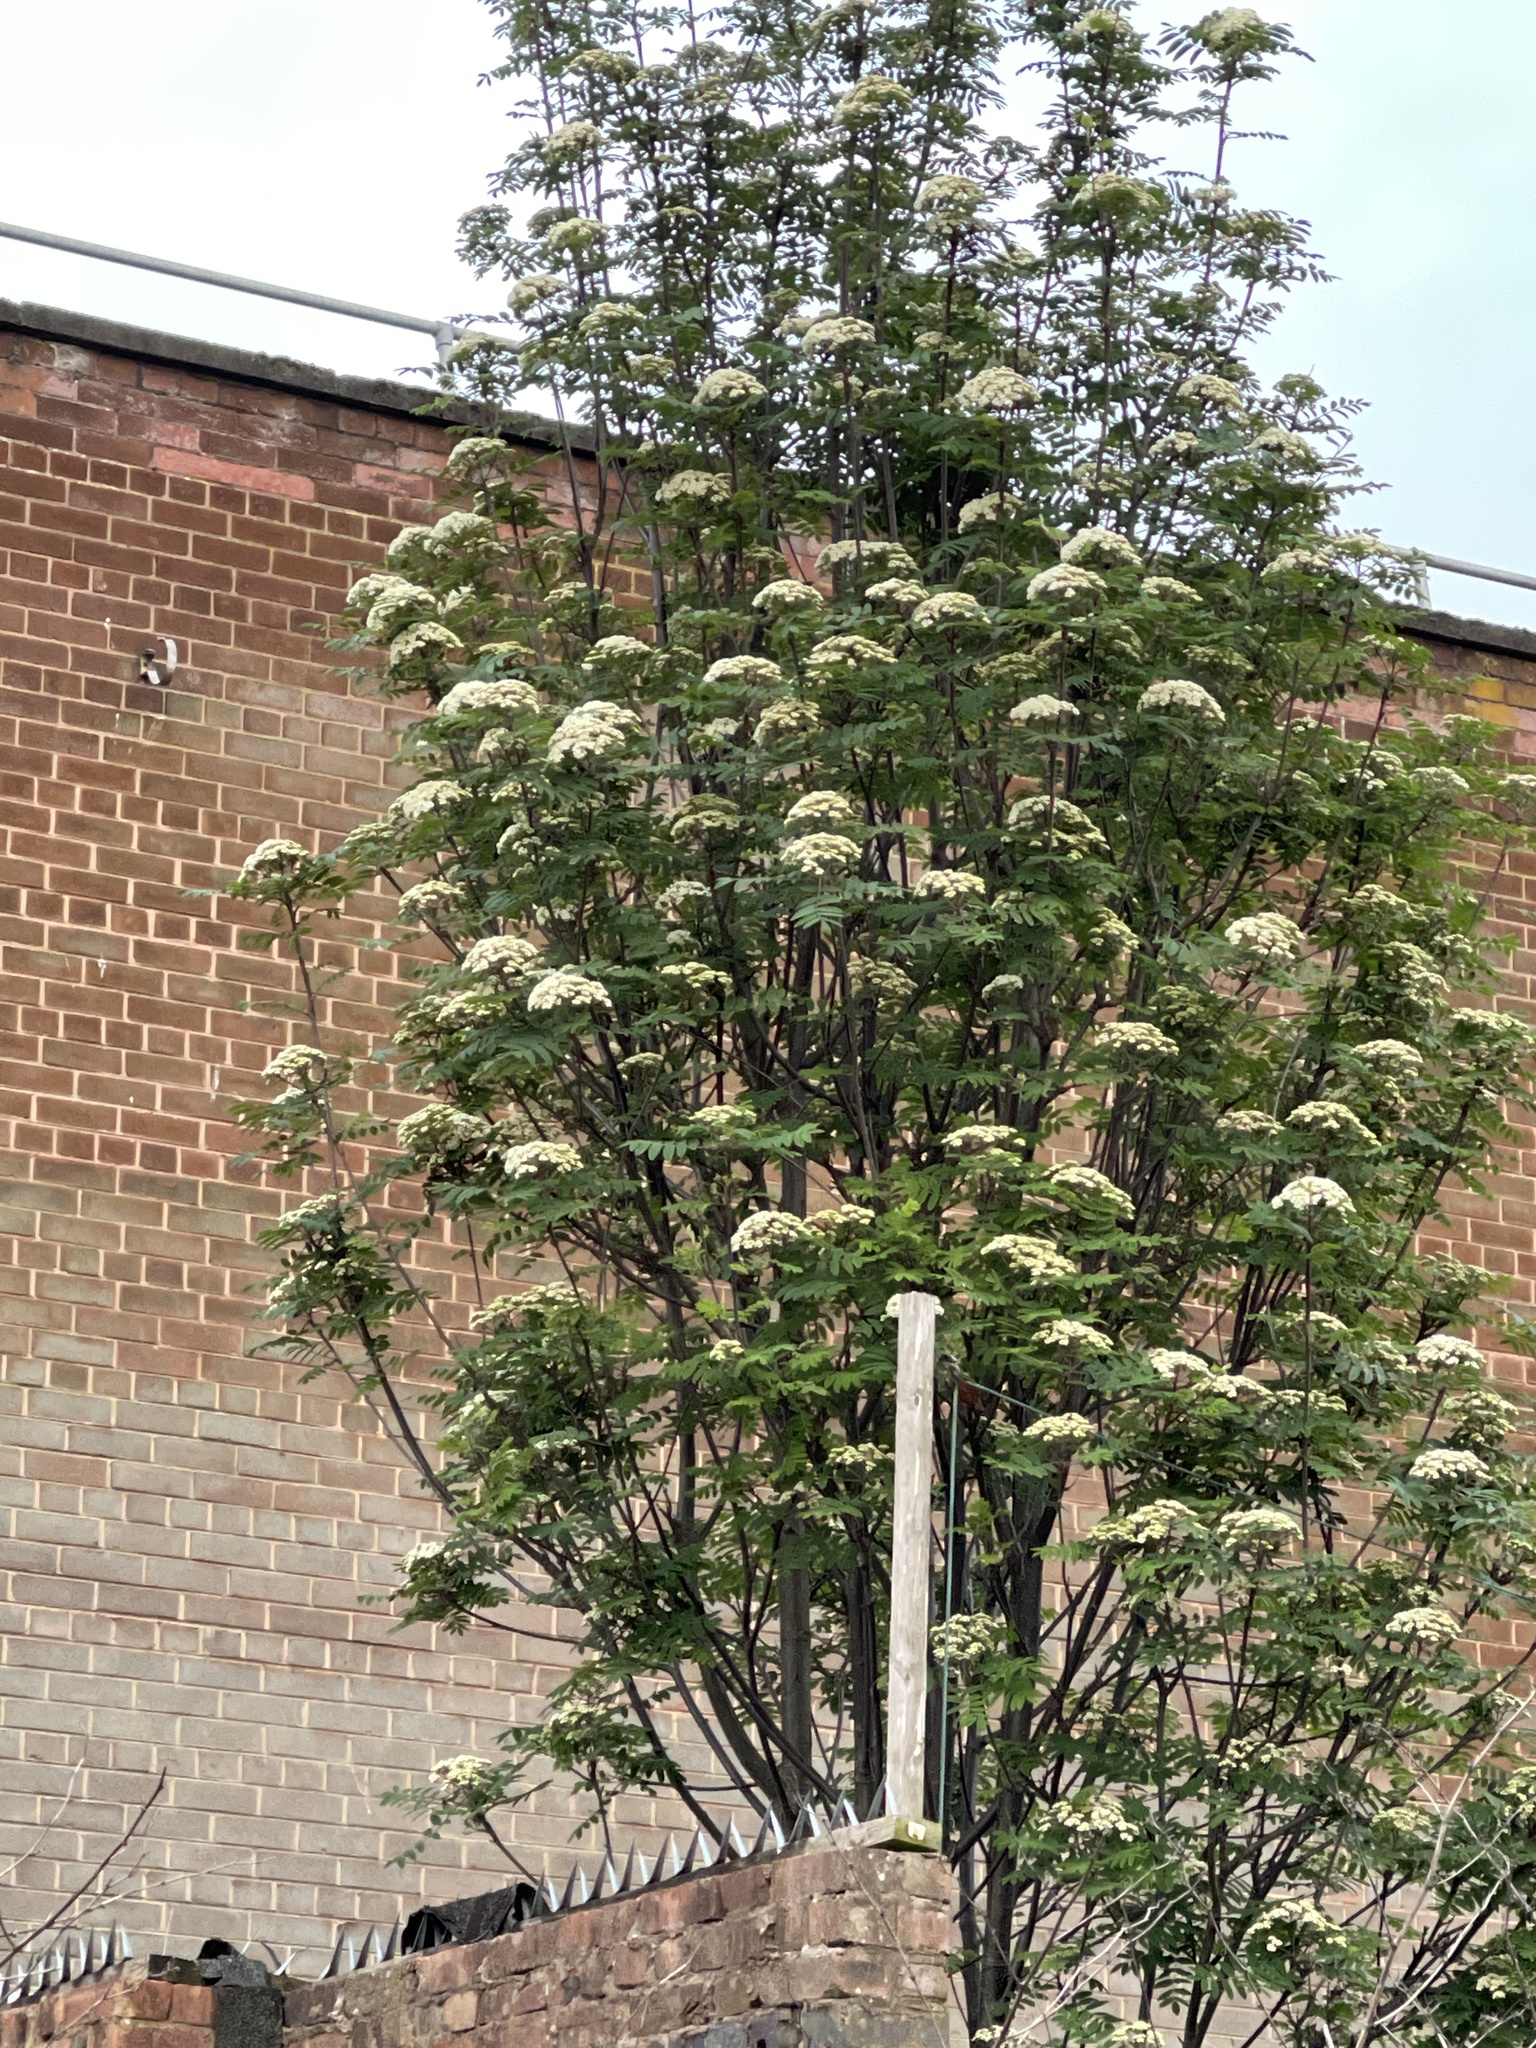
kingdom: Plantae
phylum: Tracheophyta
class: Magnoliopsida
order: Rosales
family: Rosaceae
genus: Sorbus
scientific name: Sorbus aucuparia
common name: Rowan
